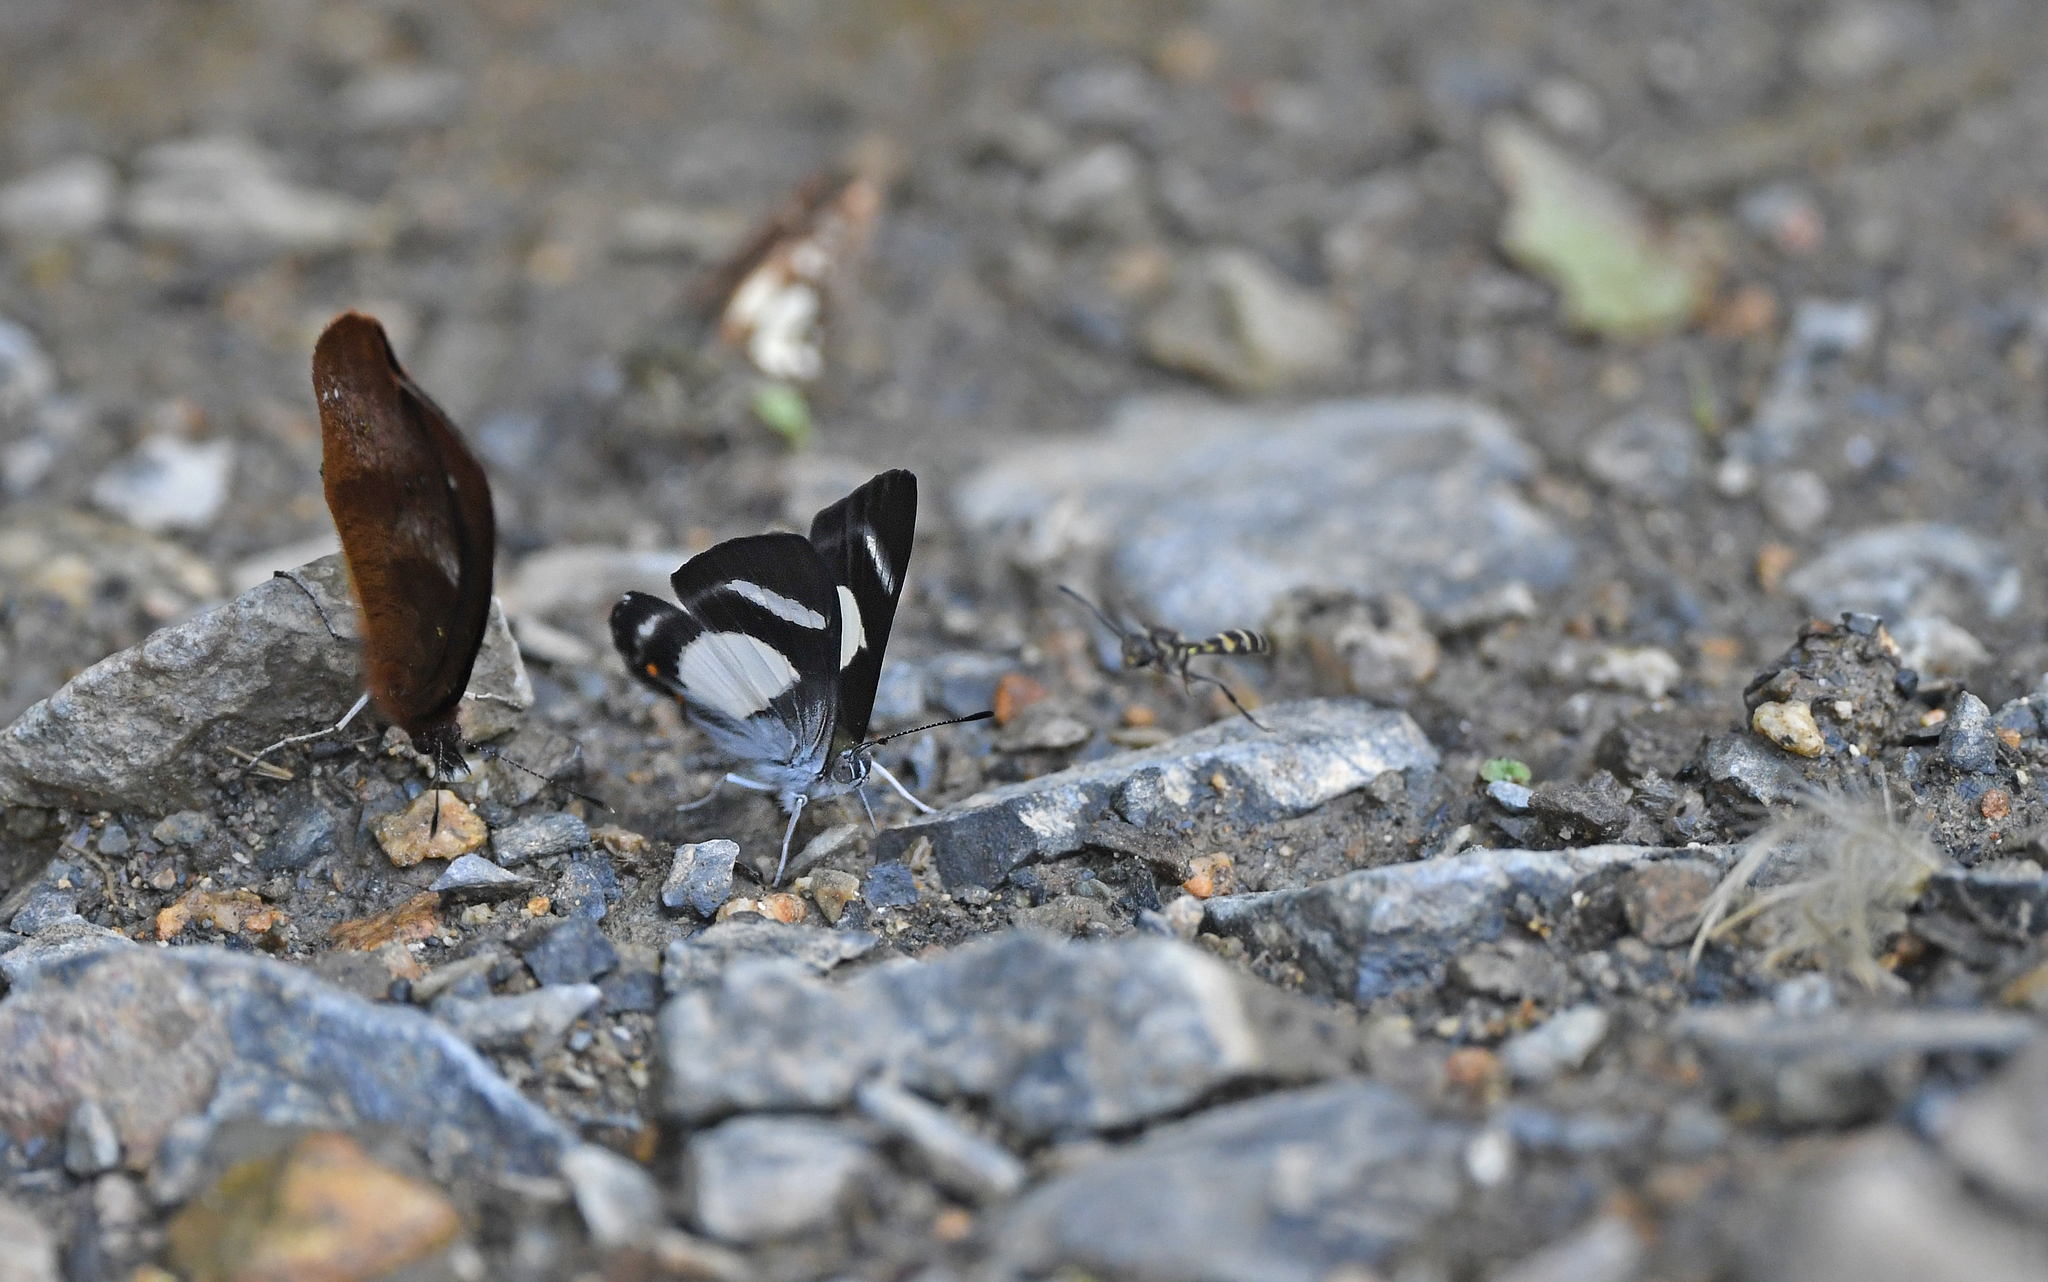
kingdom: Animalia
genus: Siseme
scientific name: Siseme alectryo
